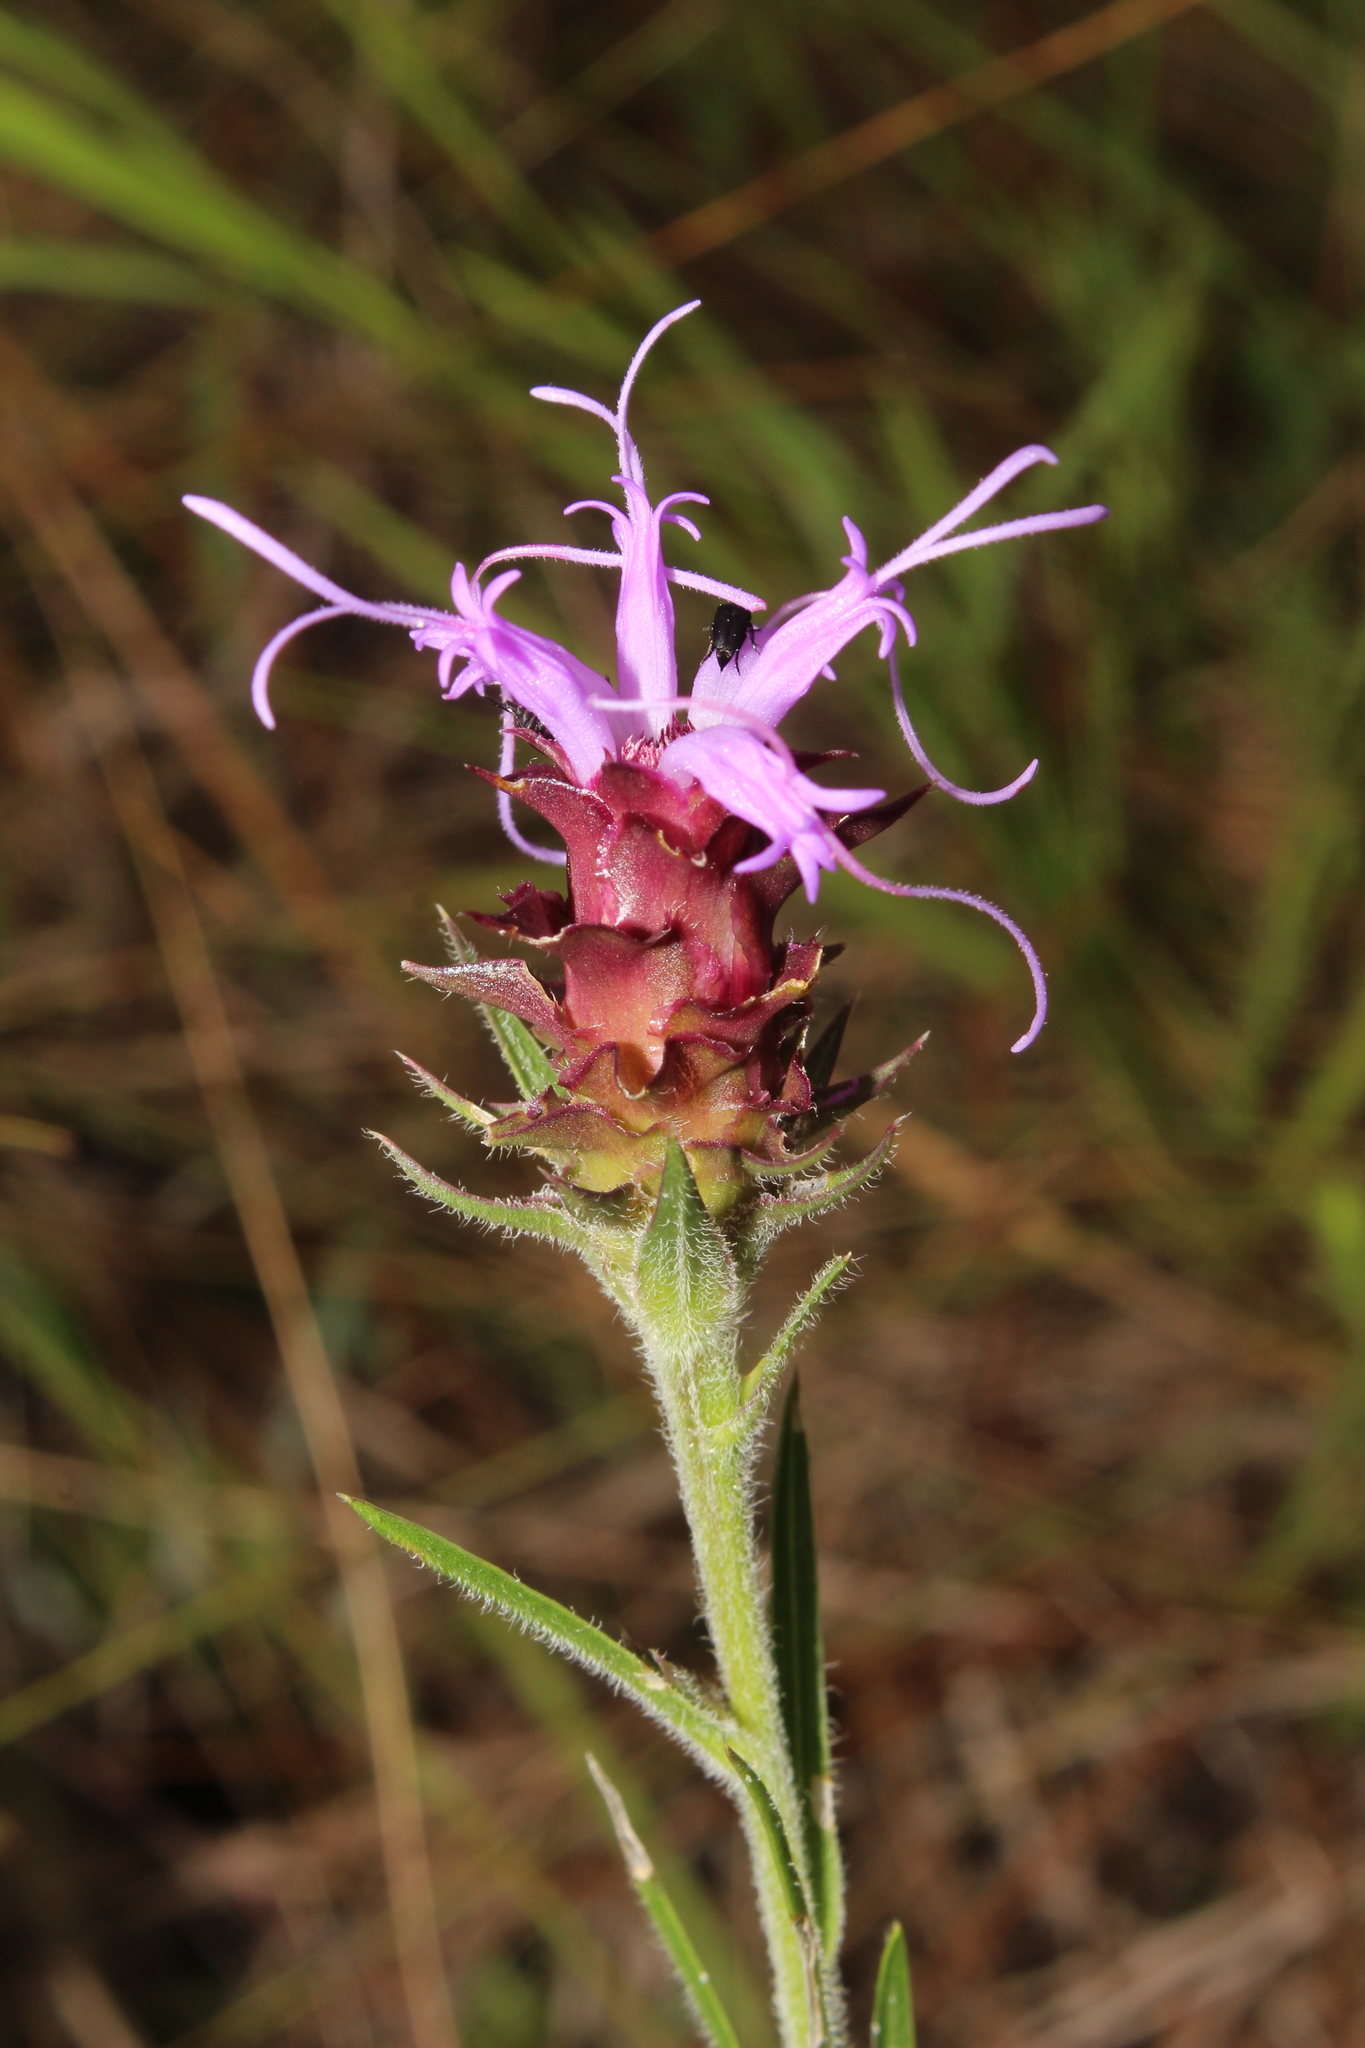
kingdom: Plantae
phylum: Tracheophyta
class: Magnoliopsida
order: Asterales
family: Asteraceae
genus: Liatris
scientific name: Liatris squarrosa
